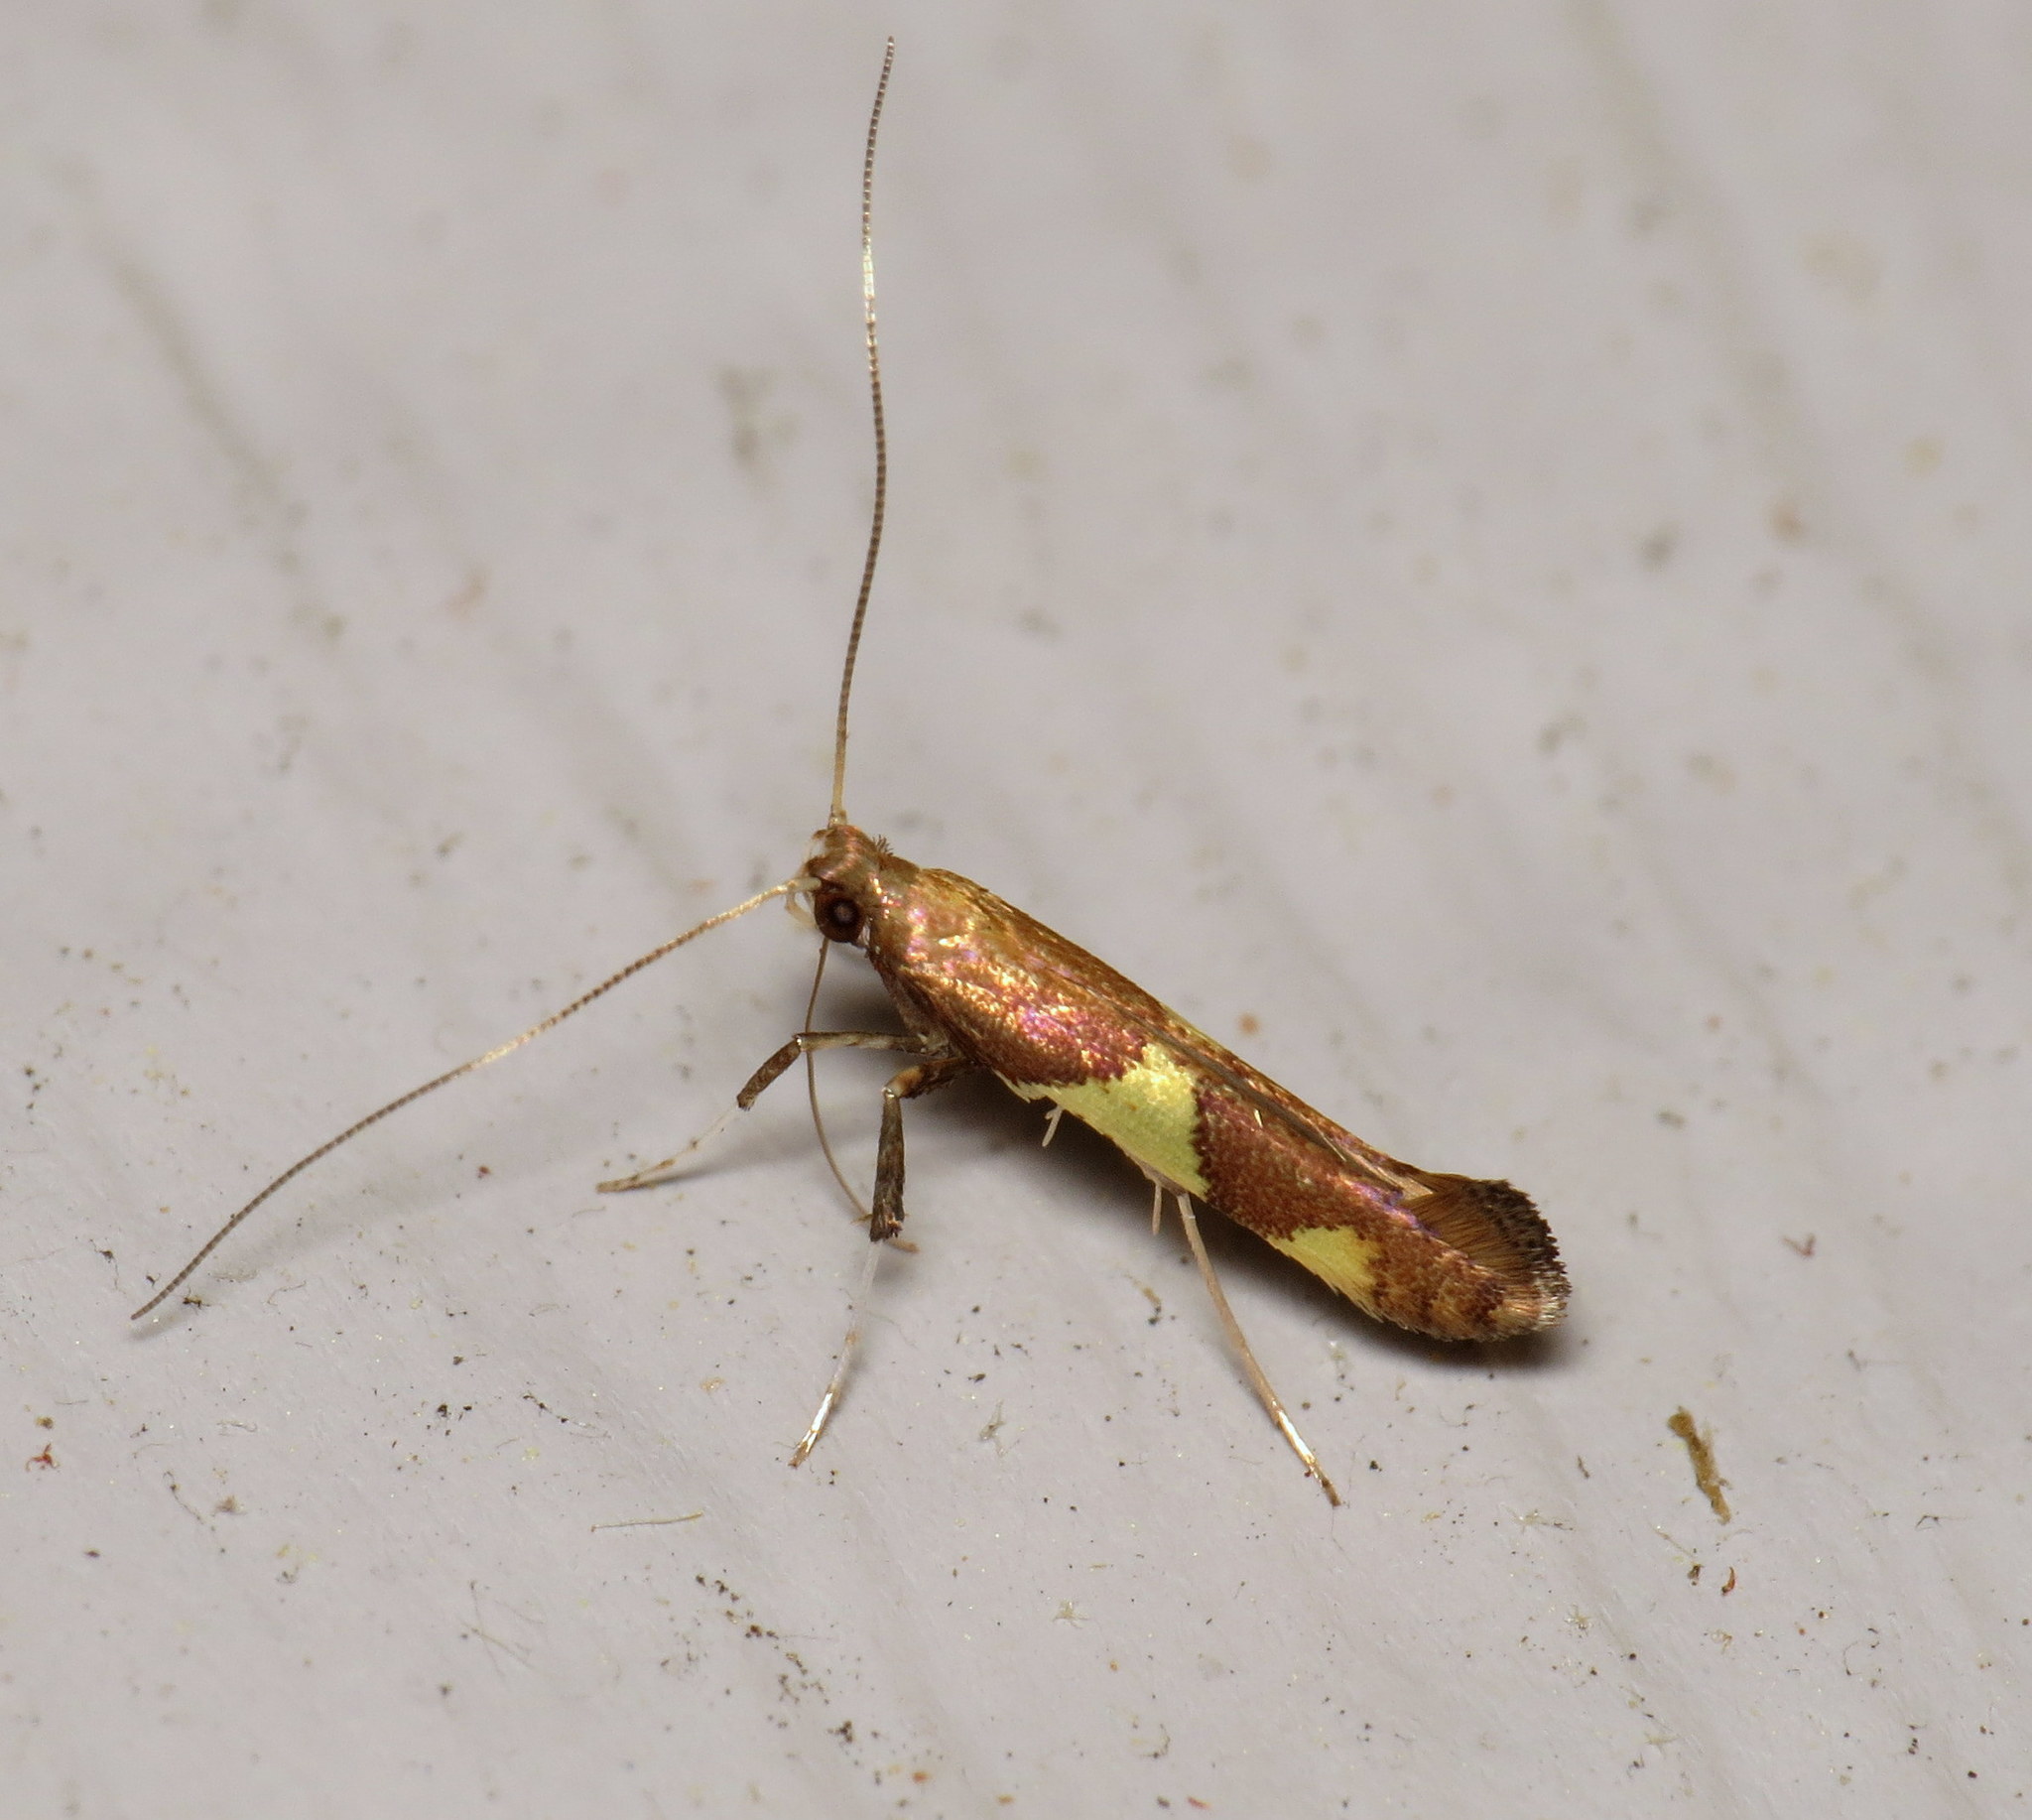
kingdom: Animalia
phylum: Arthropoda
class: Insecta
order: Lepidoptera
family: Gracillariidae
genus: Caloptilia
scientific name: Caloptilia bimaculatella
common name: Maple caloptilia moth
